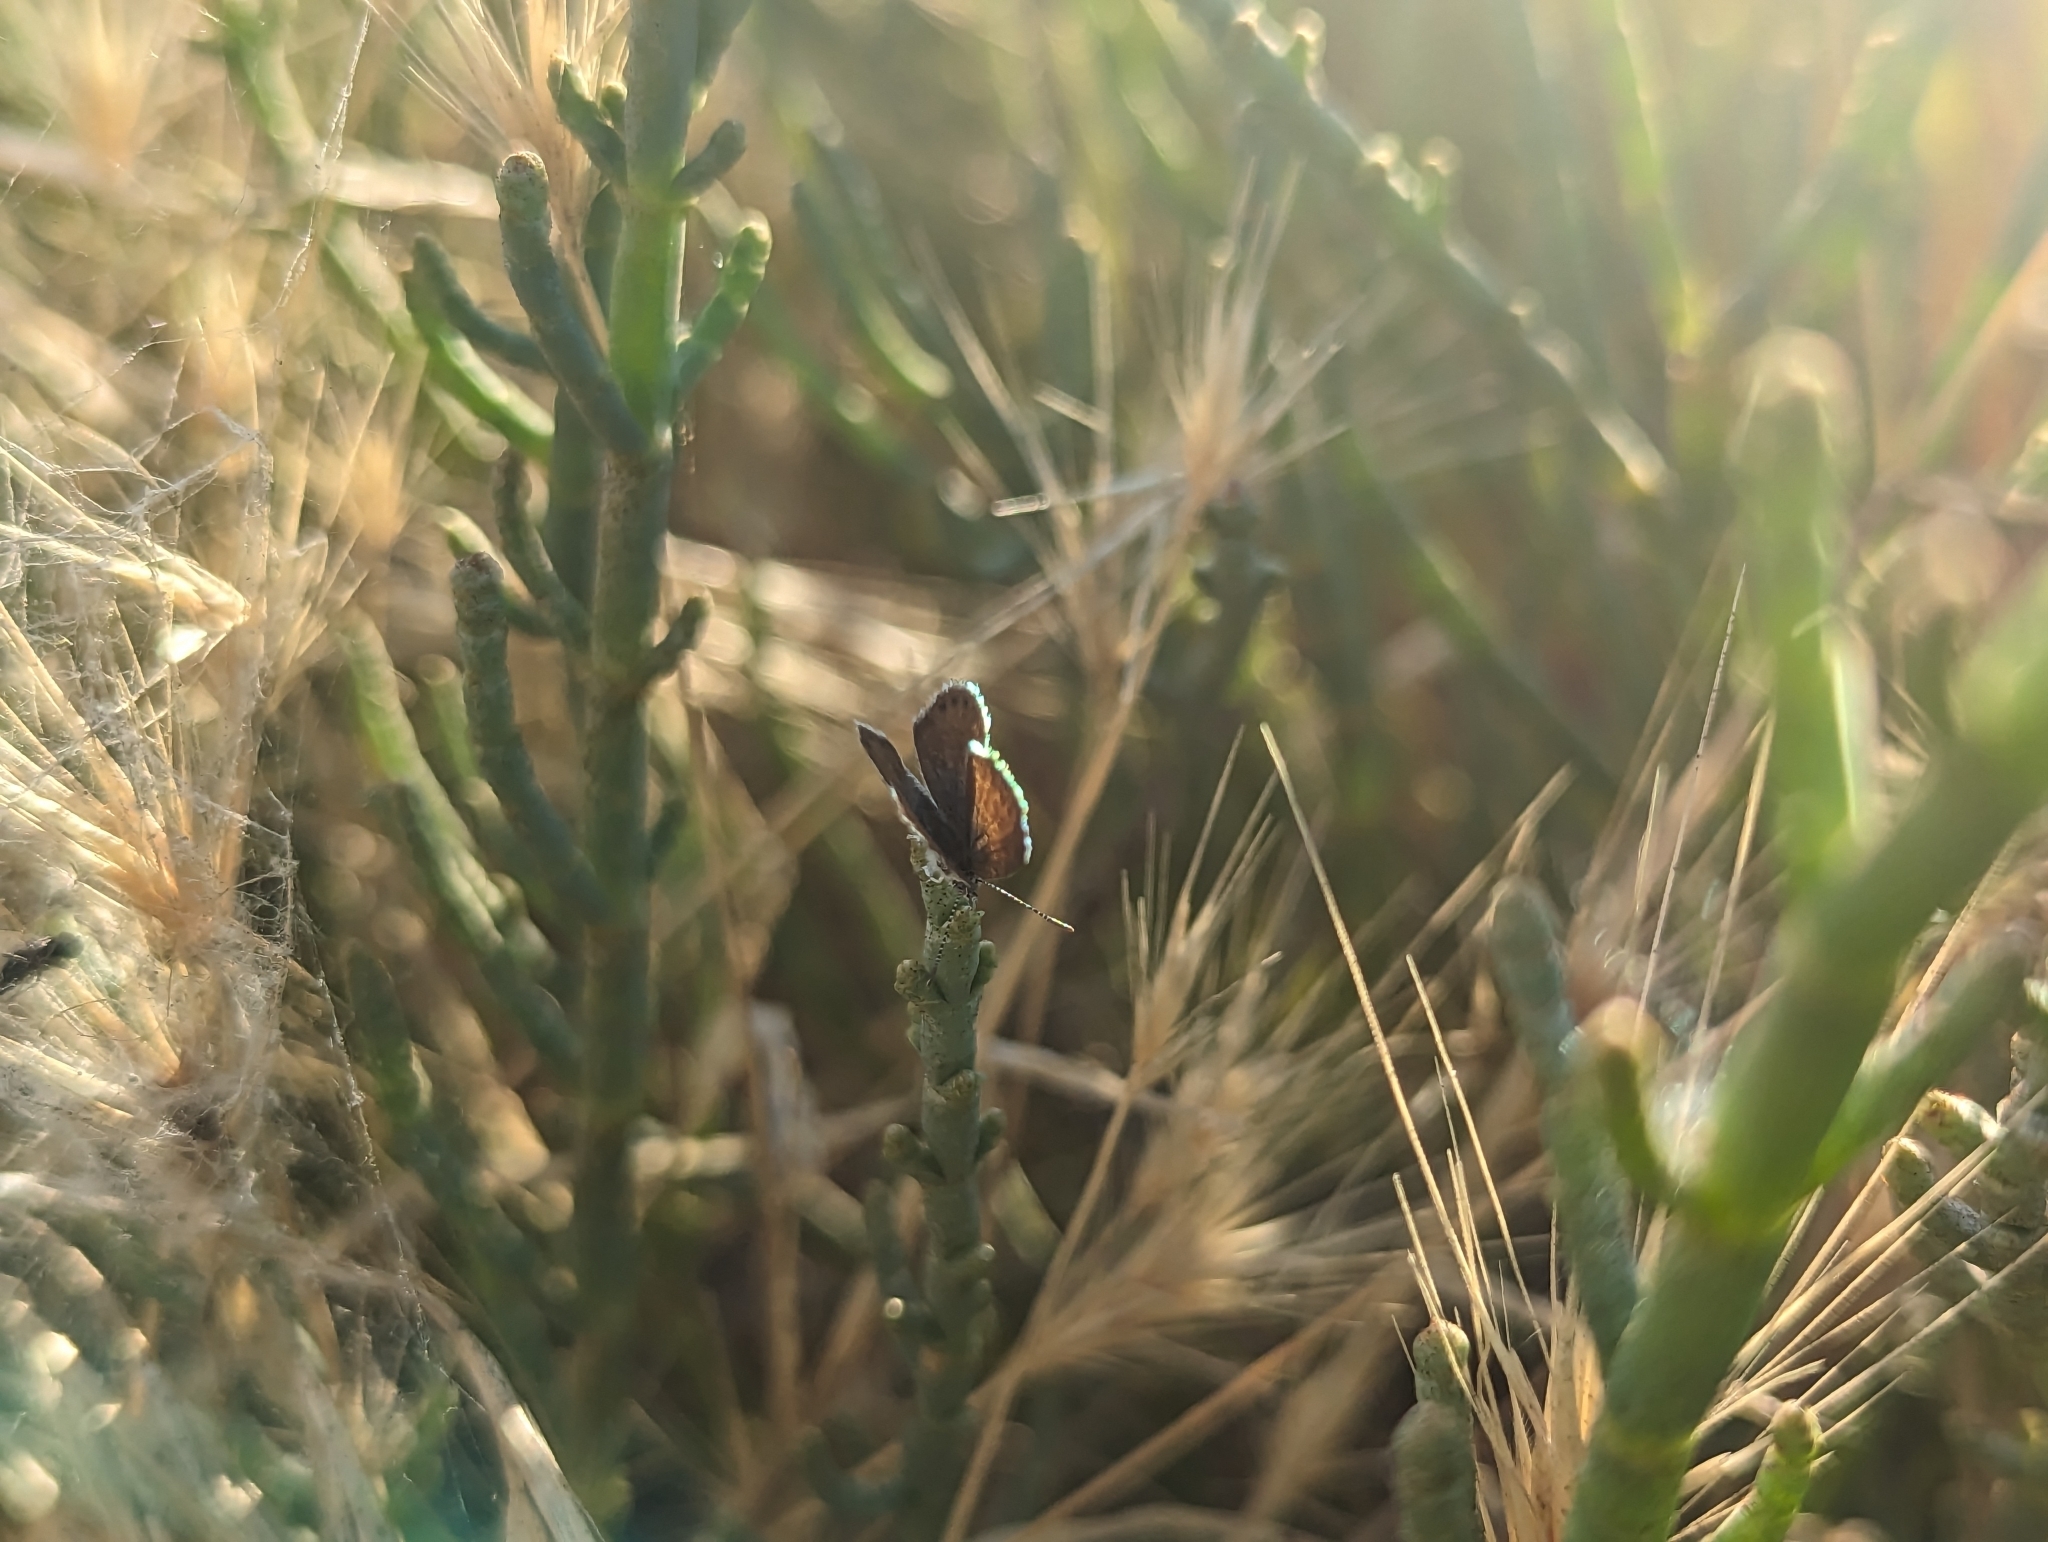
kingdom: Animalia
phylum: Arthropoda
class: Insecta
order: Lepidoptera
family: Lycaenidae
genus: Brephidium
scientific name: Brephidium exilis
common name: Pygmy blue
